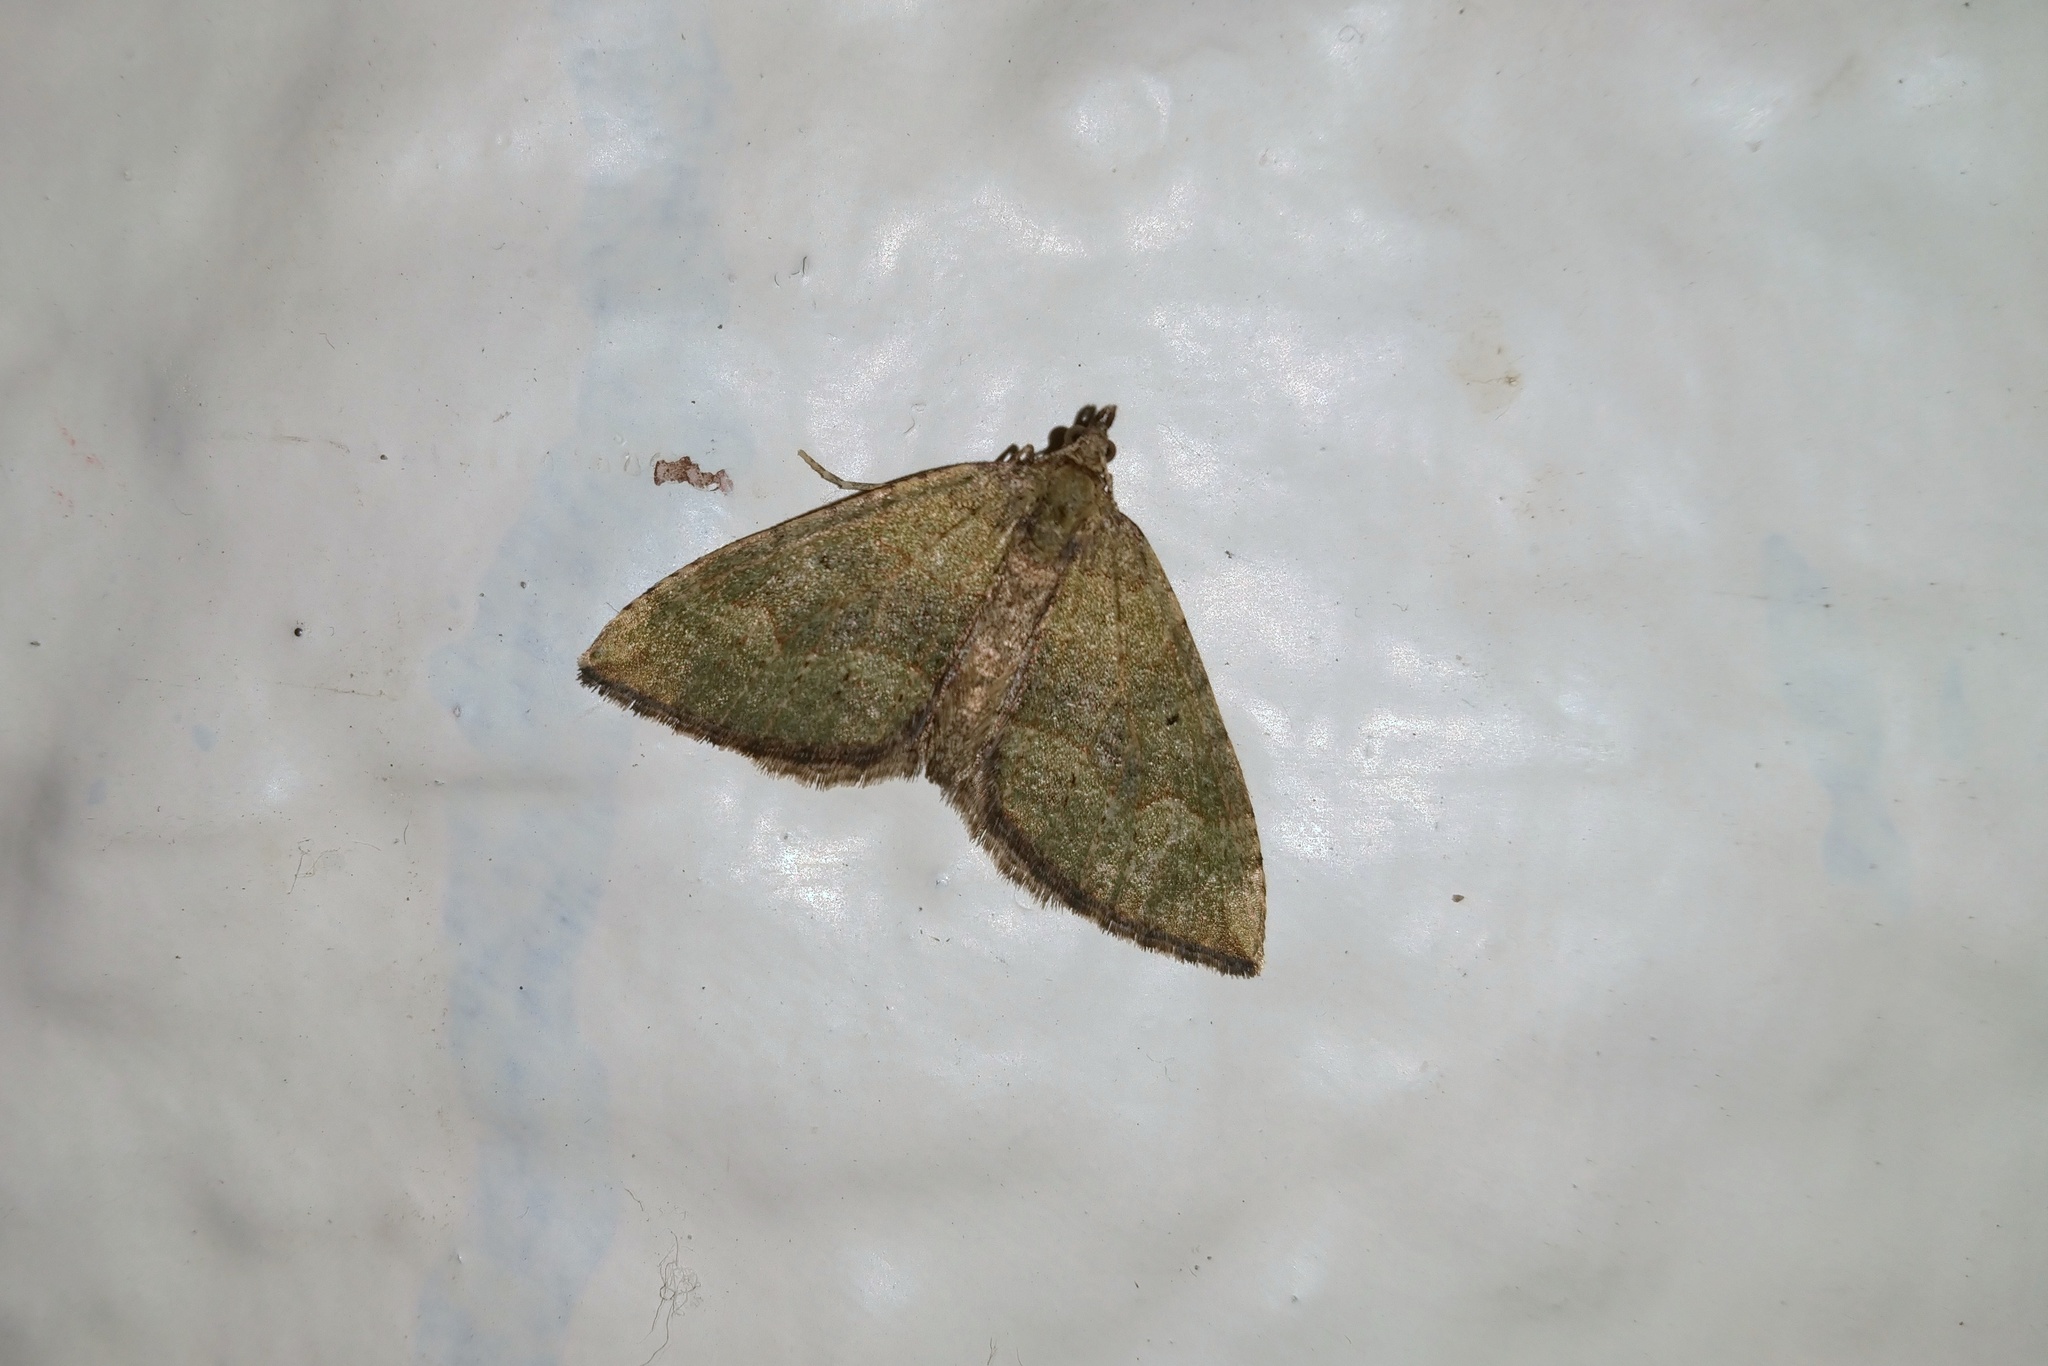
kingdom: Animalia
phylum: Arthropoda
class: Insecta
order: Lepidoptera
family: Geometridae
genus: Epyaxa
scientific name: Epyaxa rosearia
